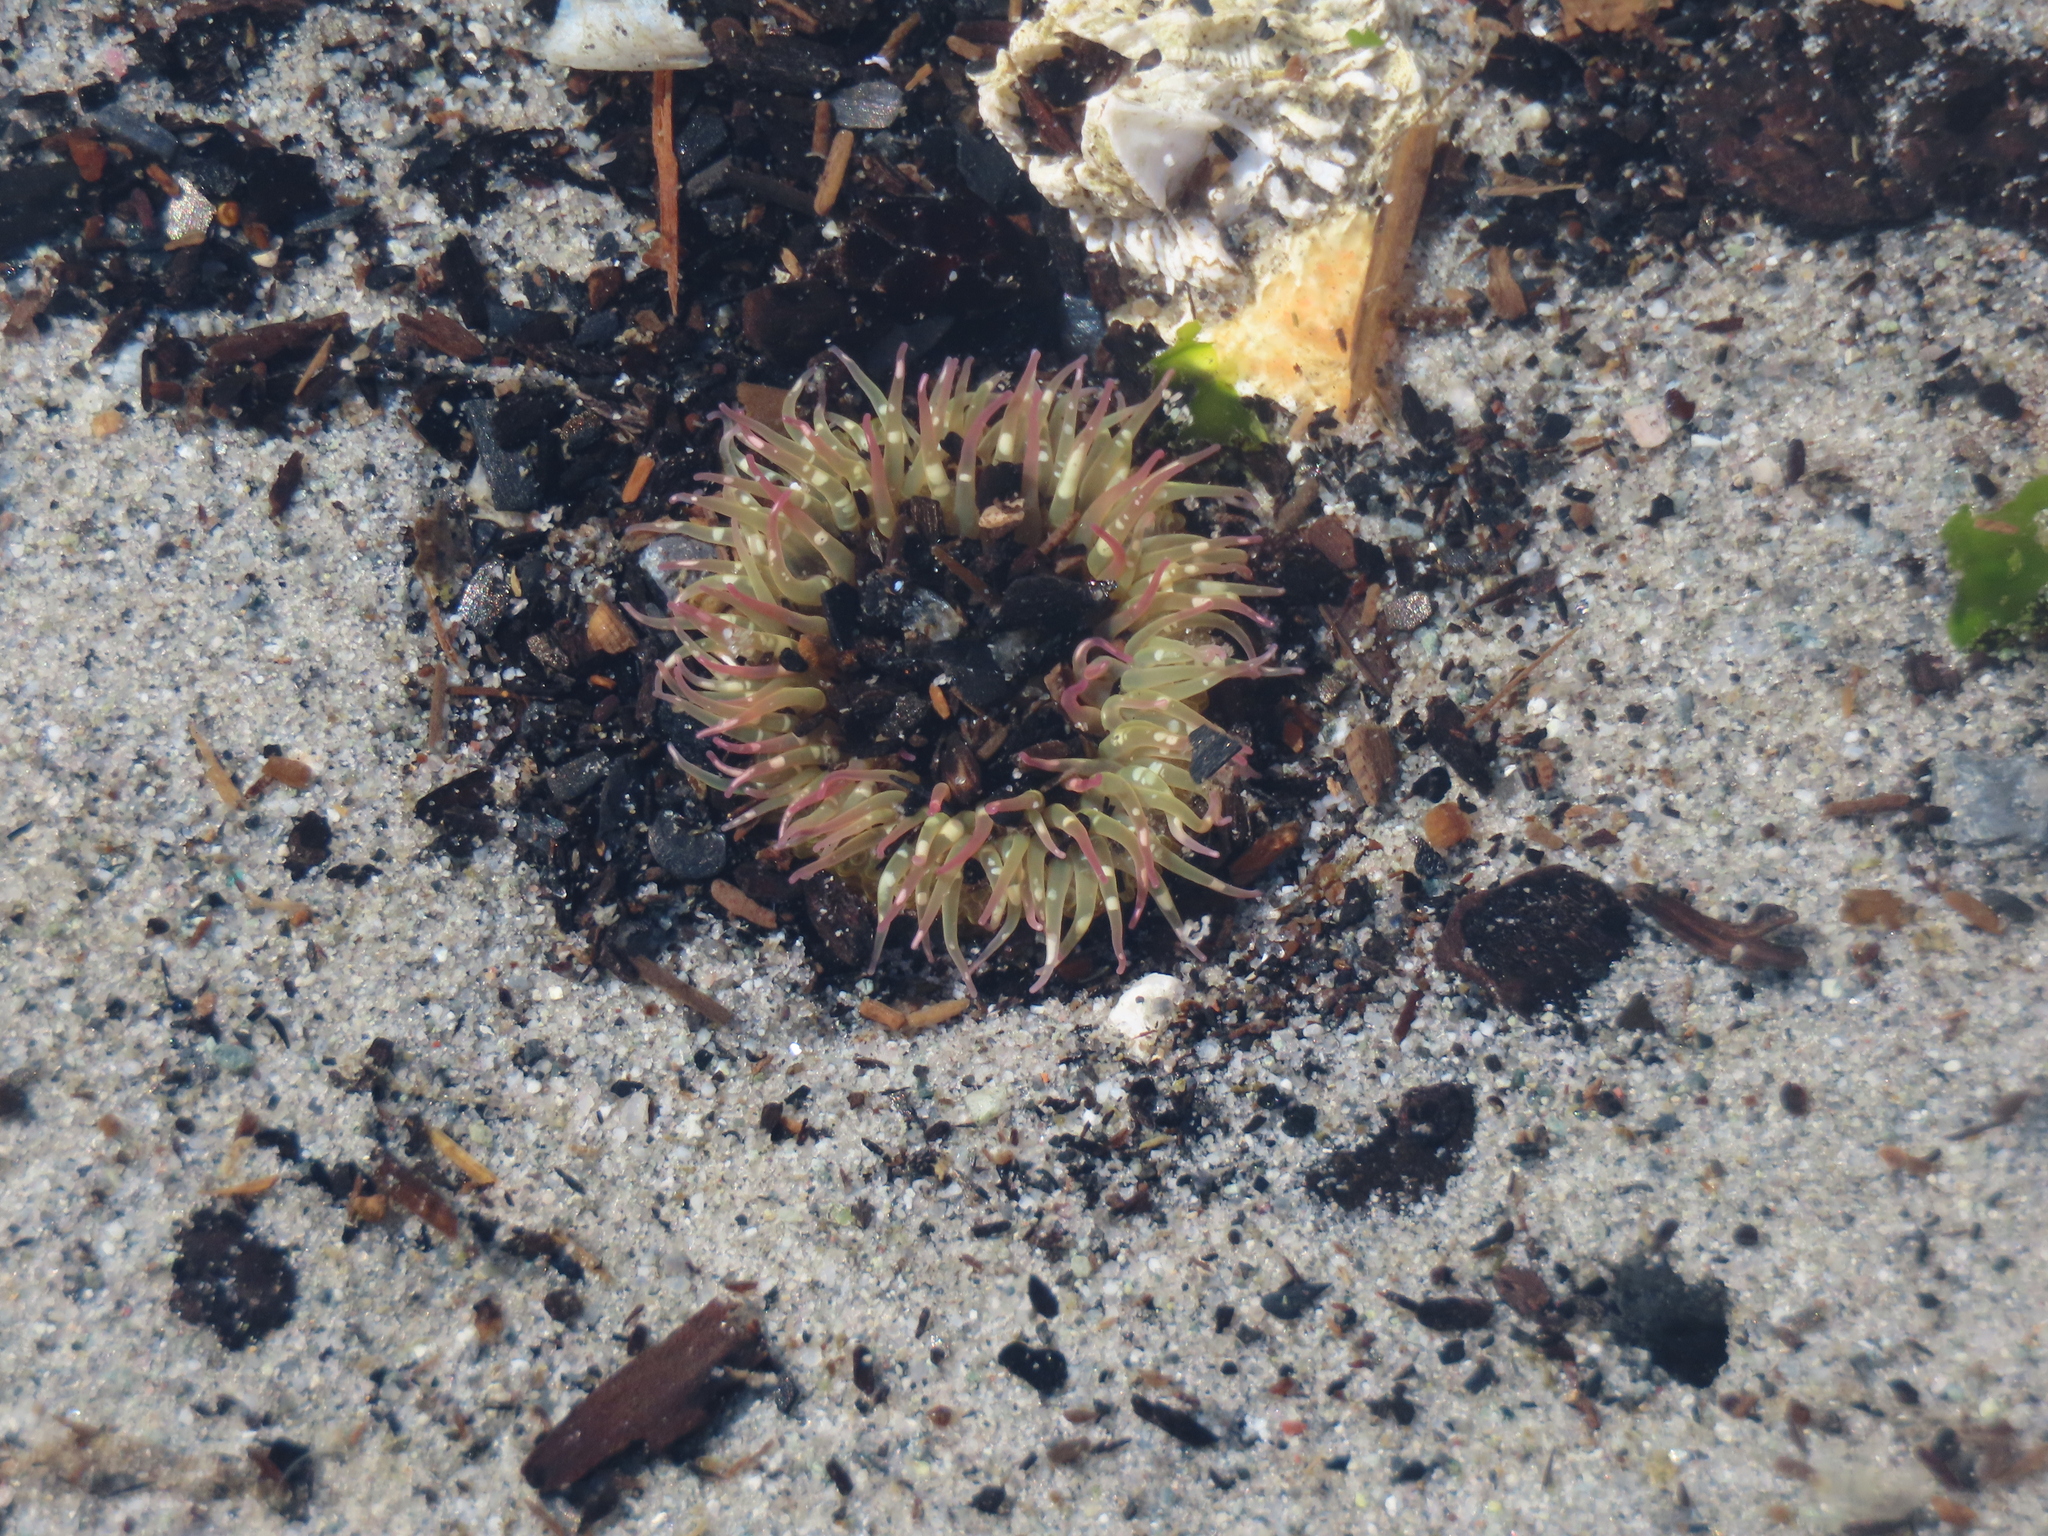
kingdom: Animalia
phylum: Cnidaria
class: Anthozoa
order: Actiniaria
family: Actiniidae
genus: Anthopleura
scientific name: Anthopleura elegantissima
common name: Clonal anemone
